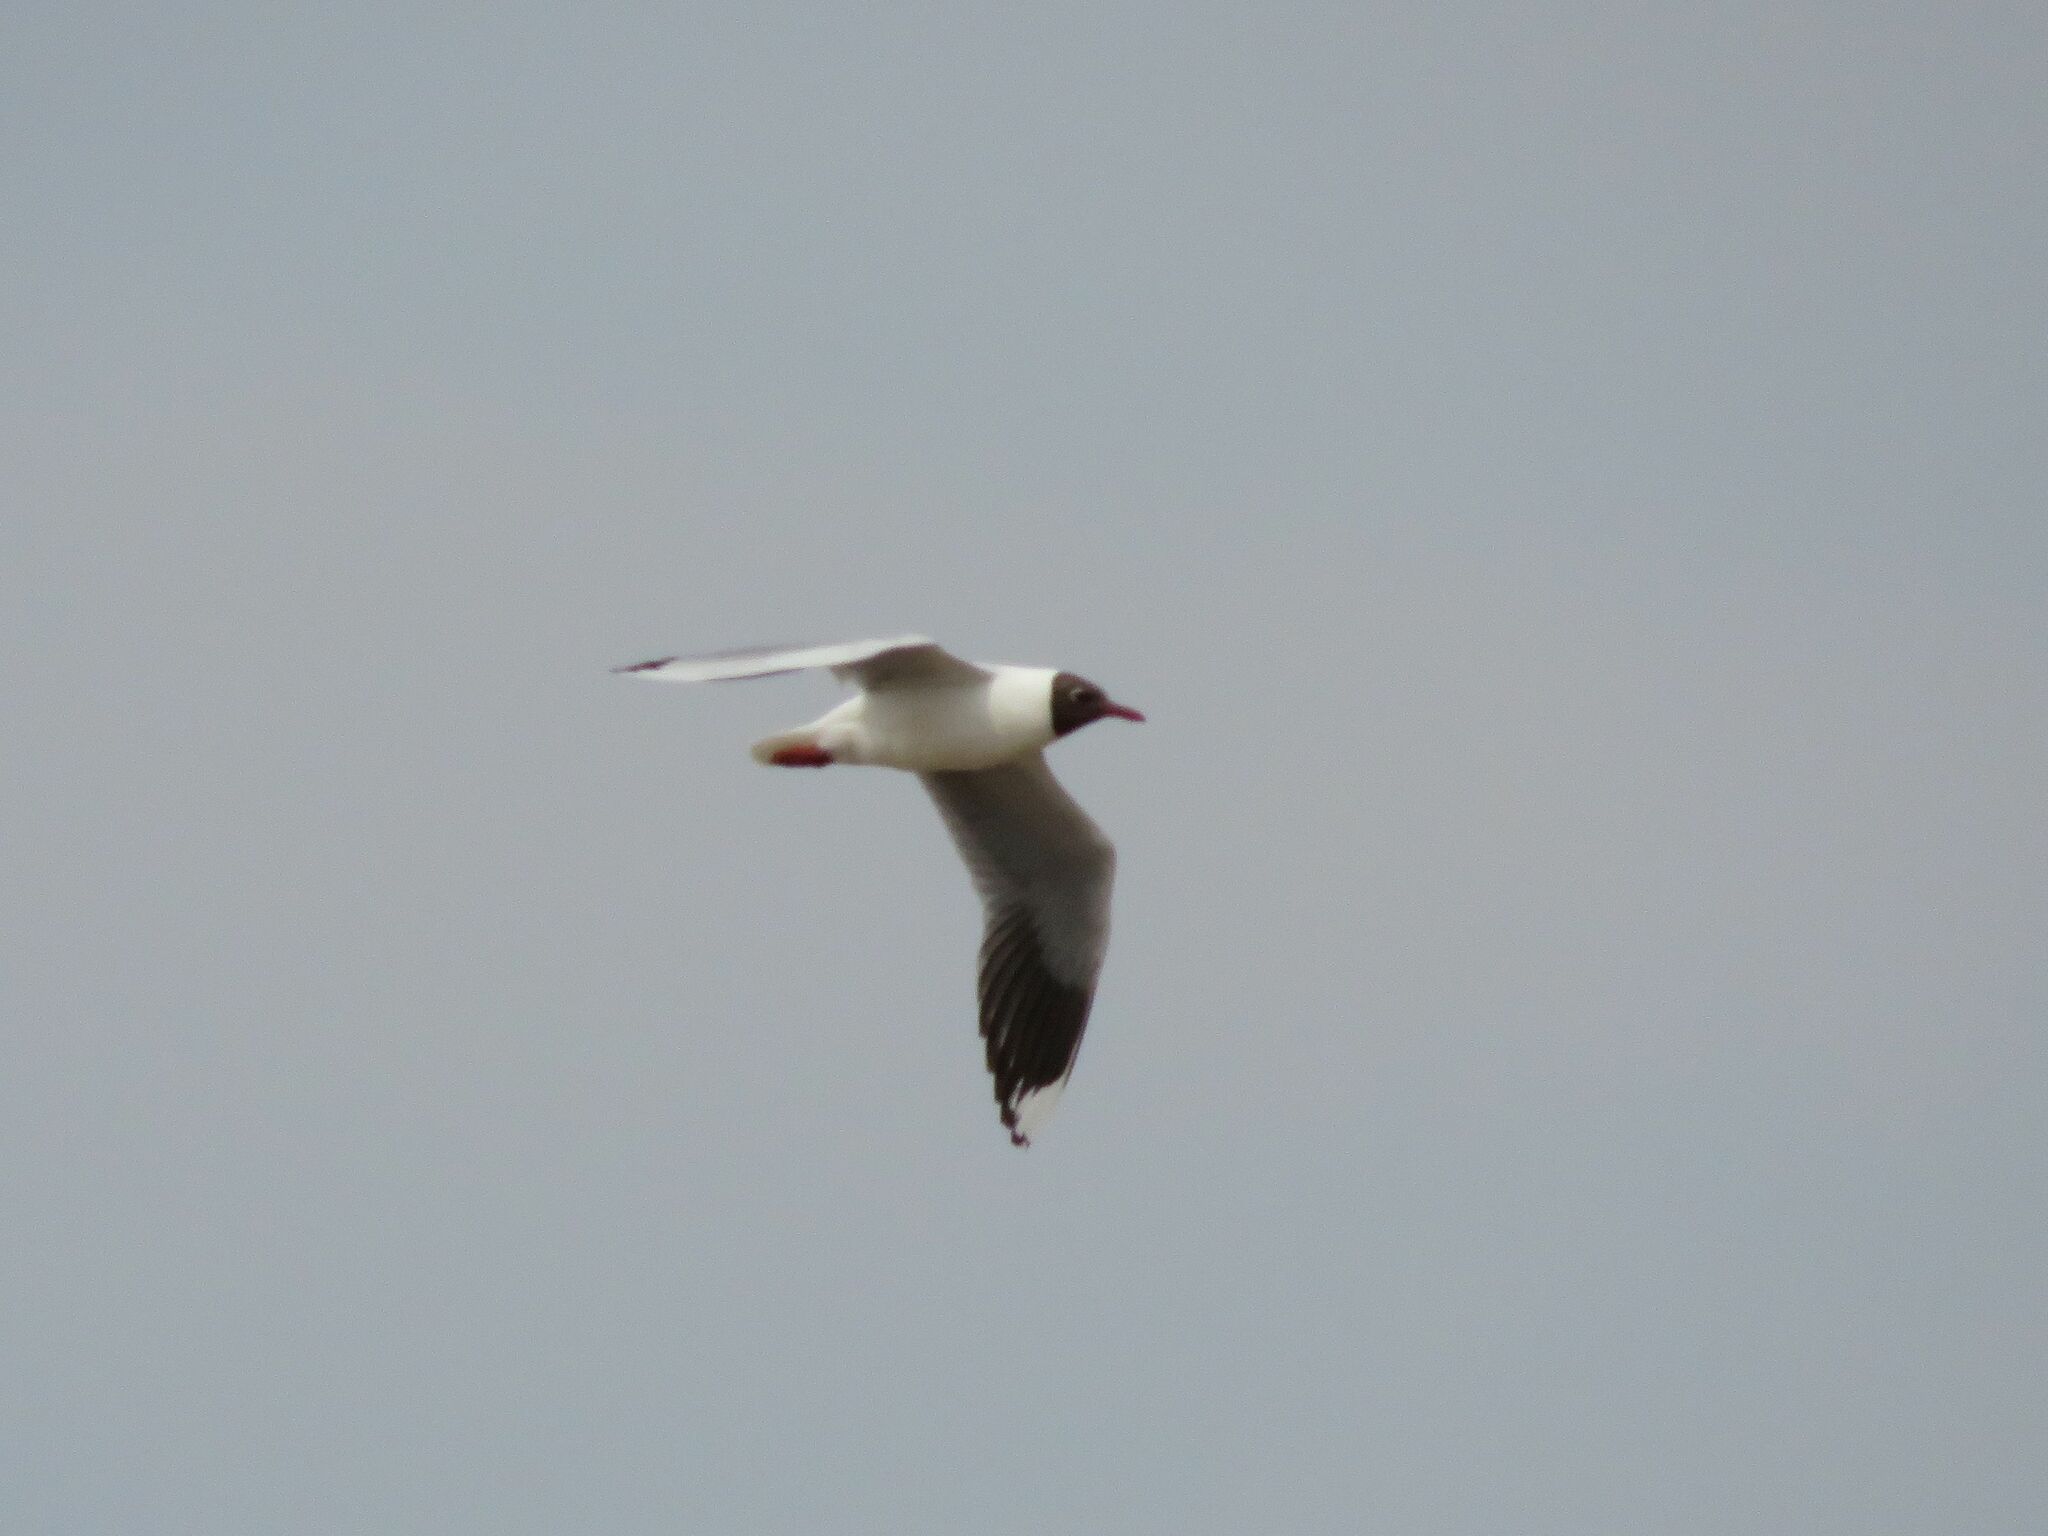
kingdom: Animalia
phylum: Chordata
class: Aves
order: Charadriiformes
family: Laridae
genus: Chroicocephalus
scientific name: Chroicocephalus maculipennis
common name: Brown-hooded gull
